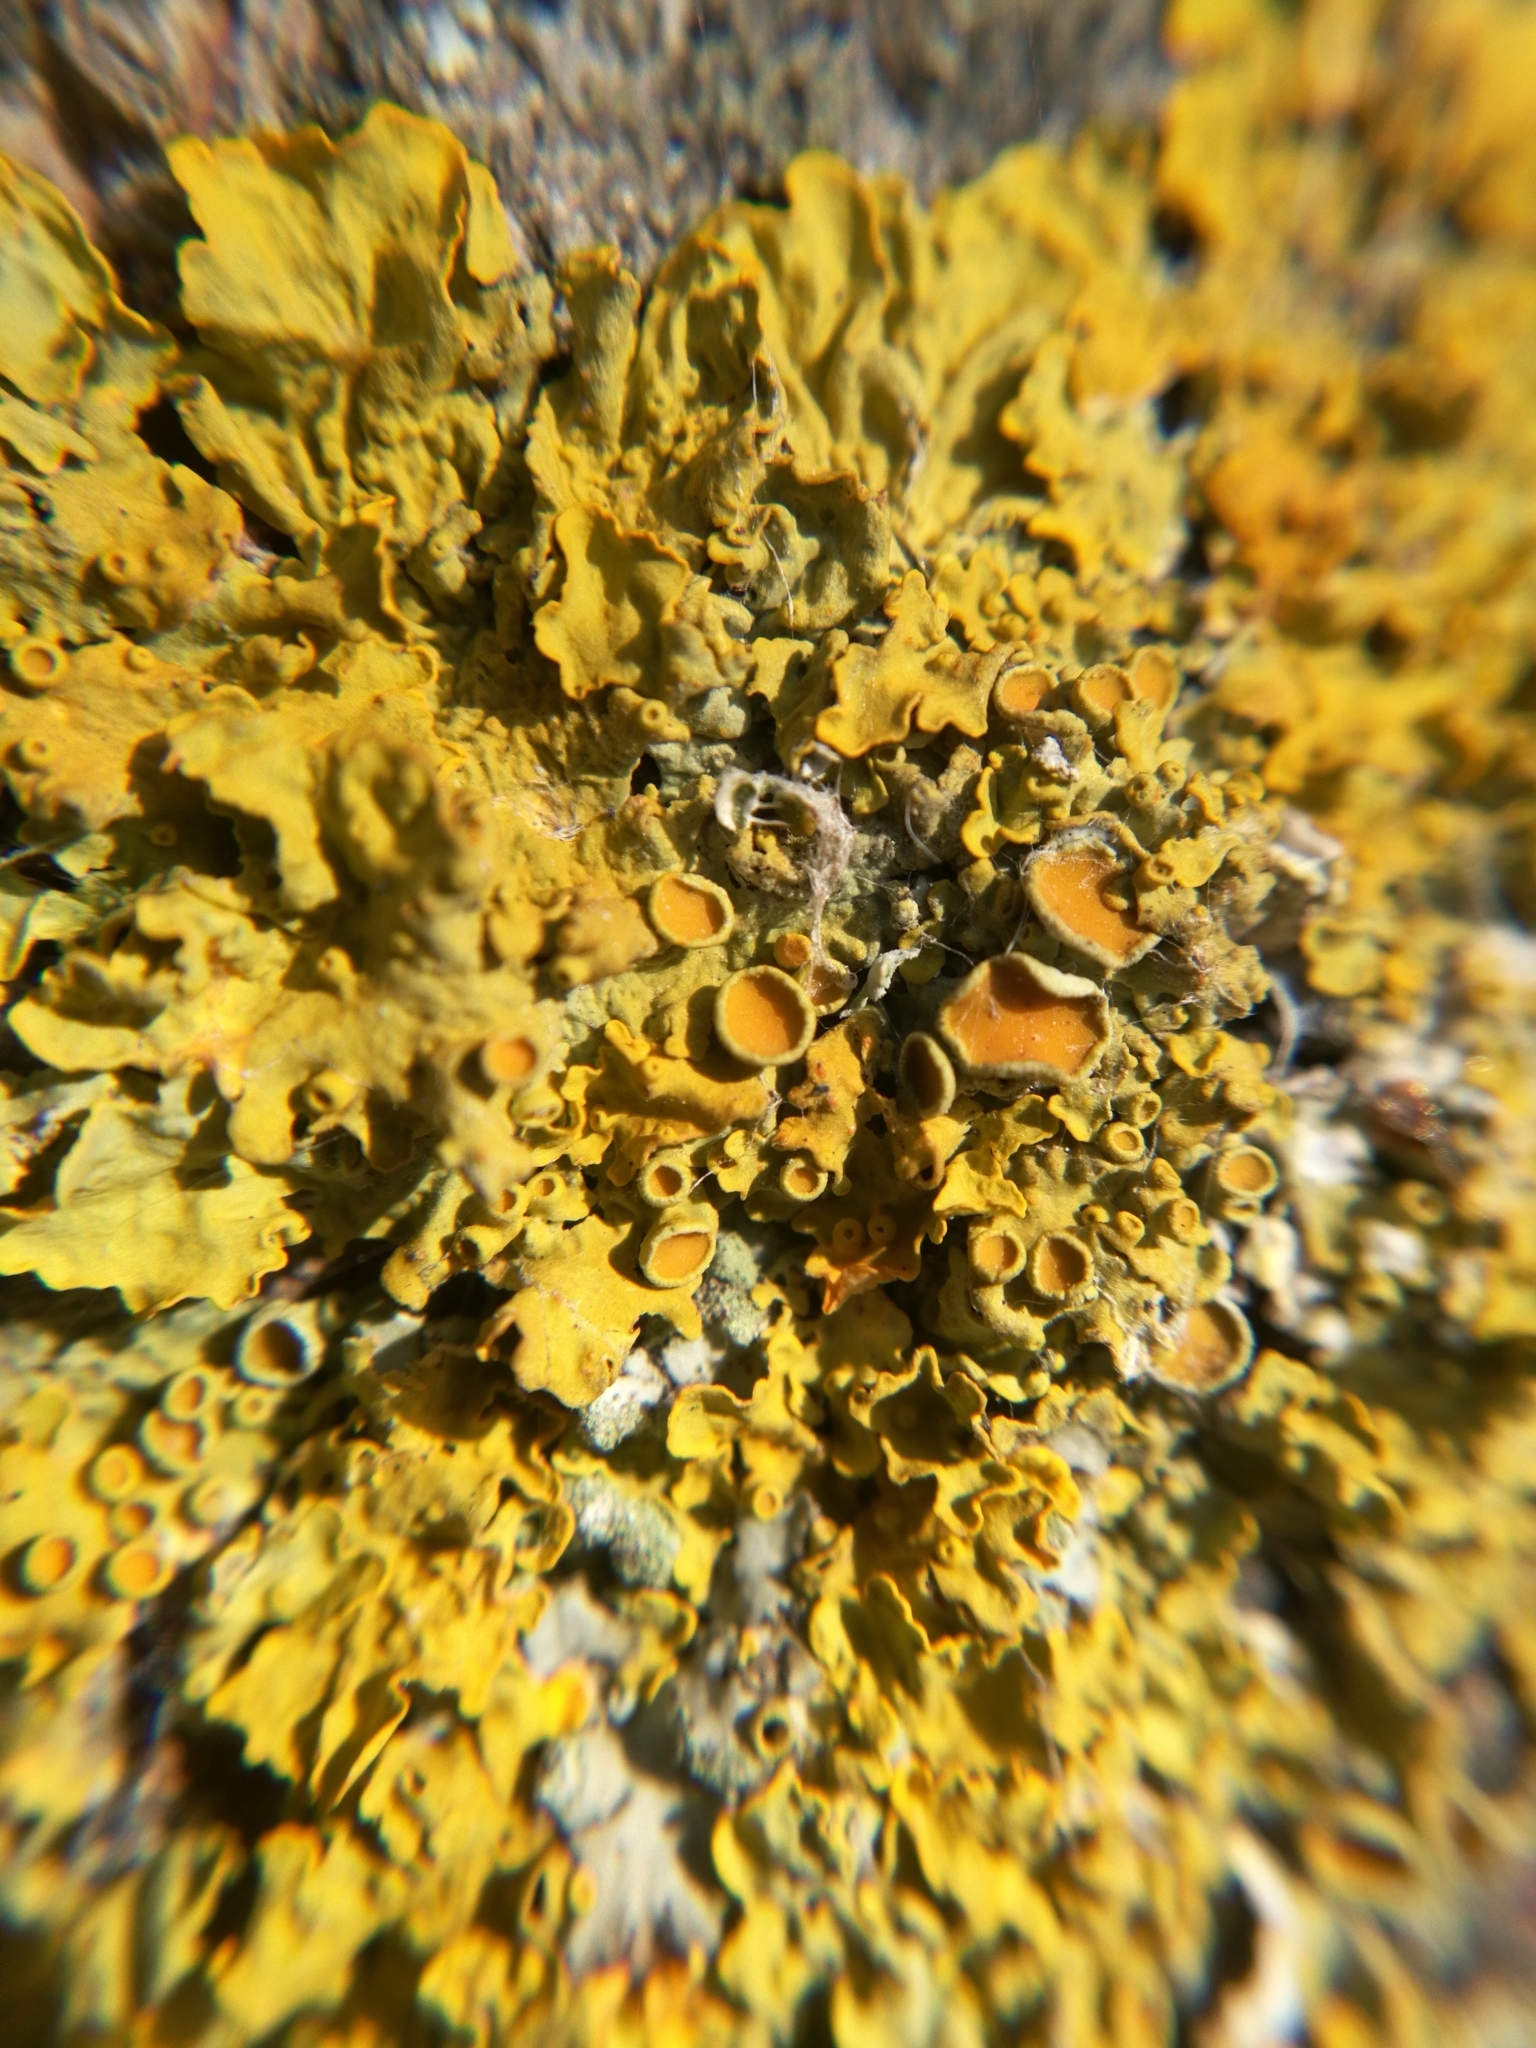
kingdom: Fungi
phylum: Ascomycota
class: Lecanoromycetes
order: Teloschistales
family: Teloschistaceae
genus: Xanthoria
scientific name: Xanthoria parietina
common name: Common orange lichen
